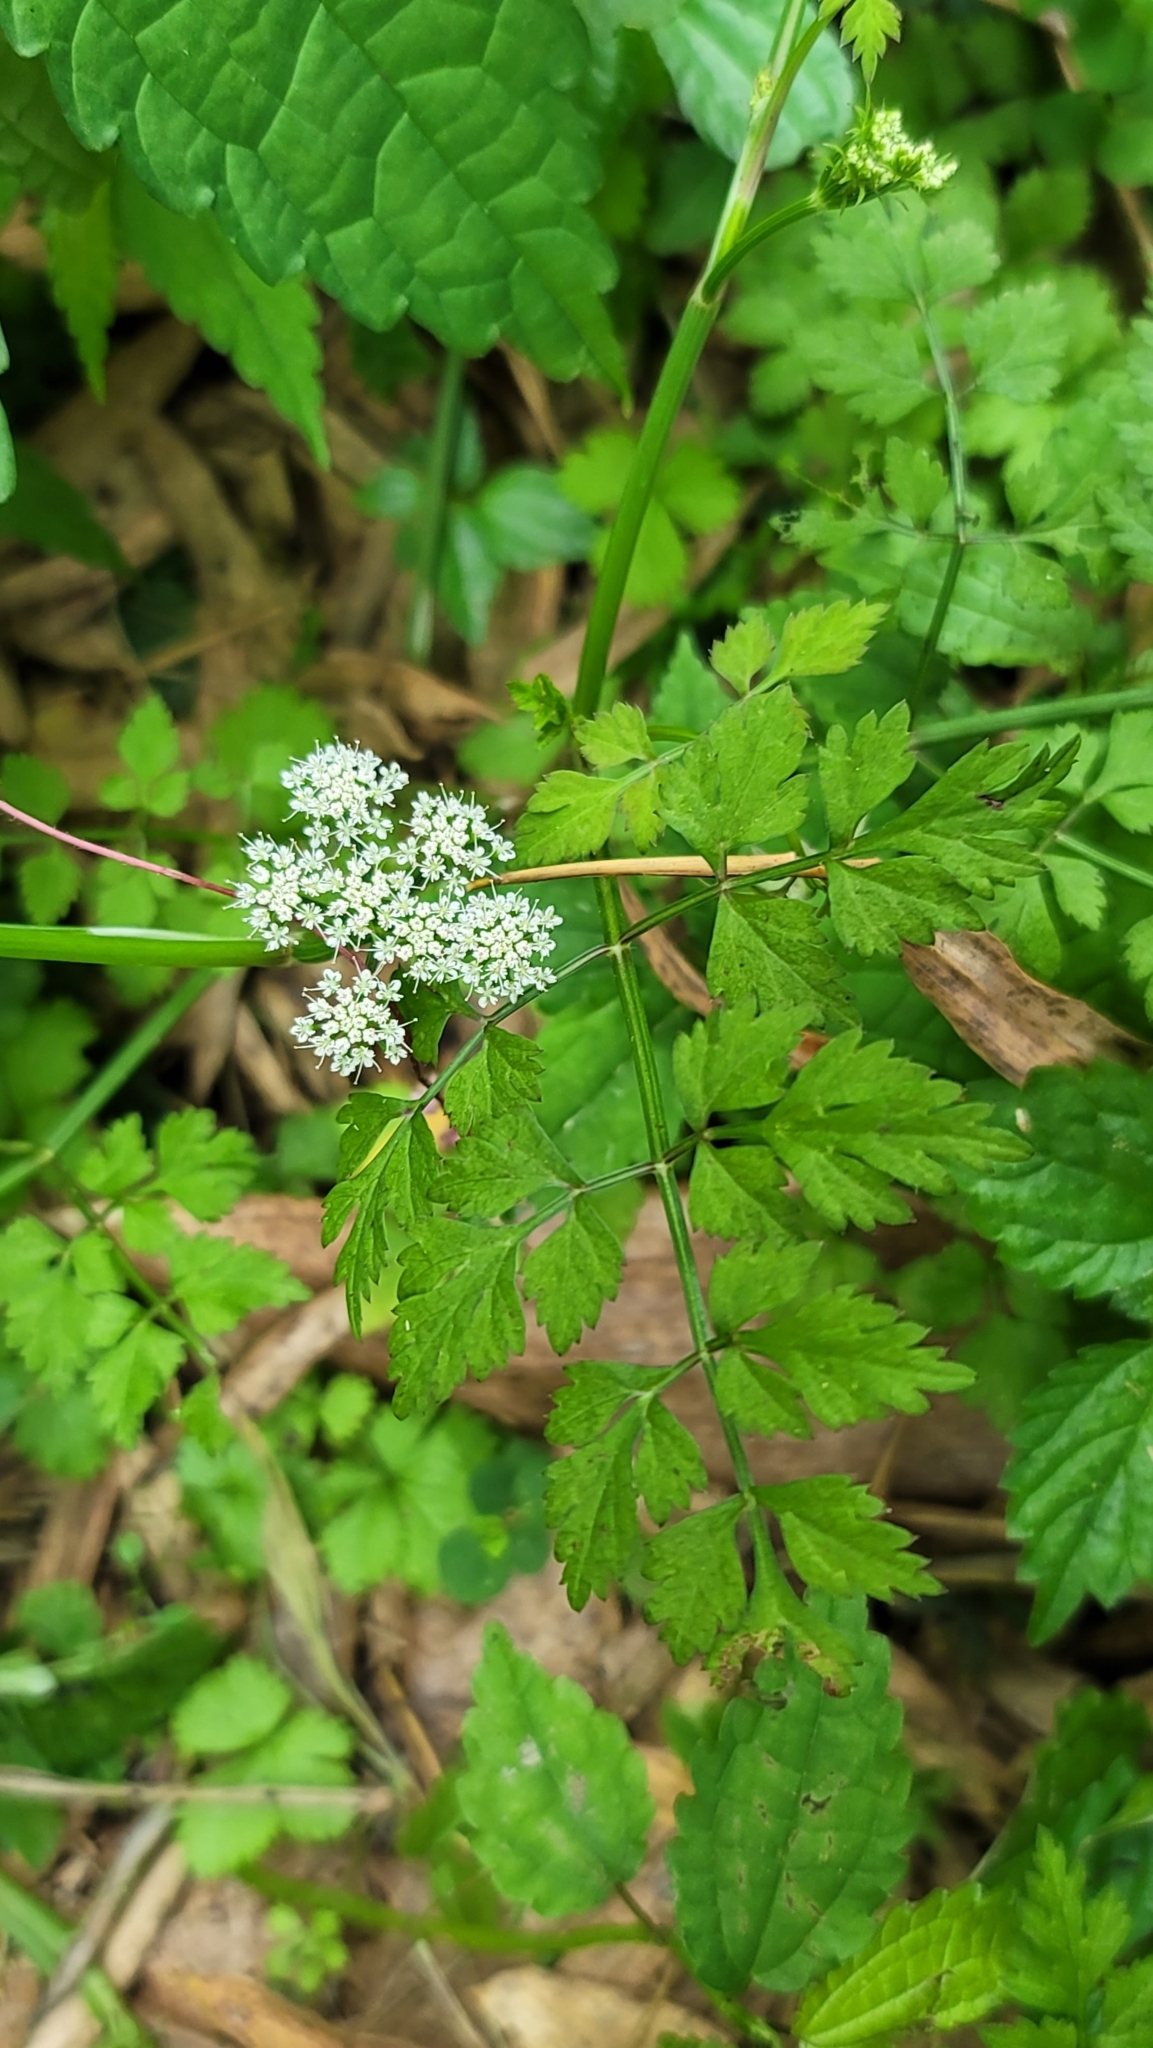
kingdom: Plantae
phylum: Tracheophyta
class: Magnoliopsida
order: Apiales
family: Apiaceae
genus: Oenanthe
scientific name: Oenanthe javanica
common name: Java water-dropwort
